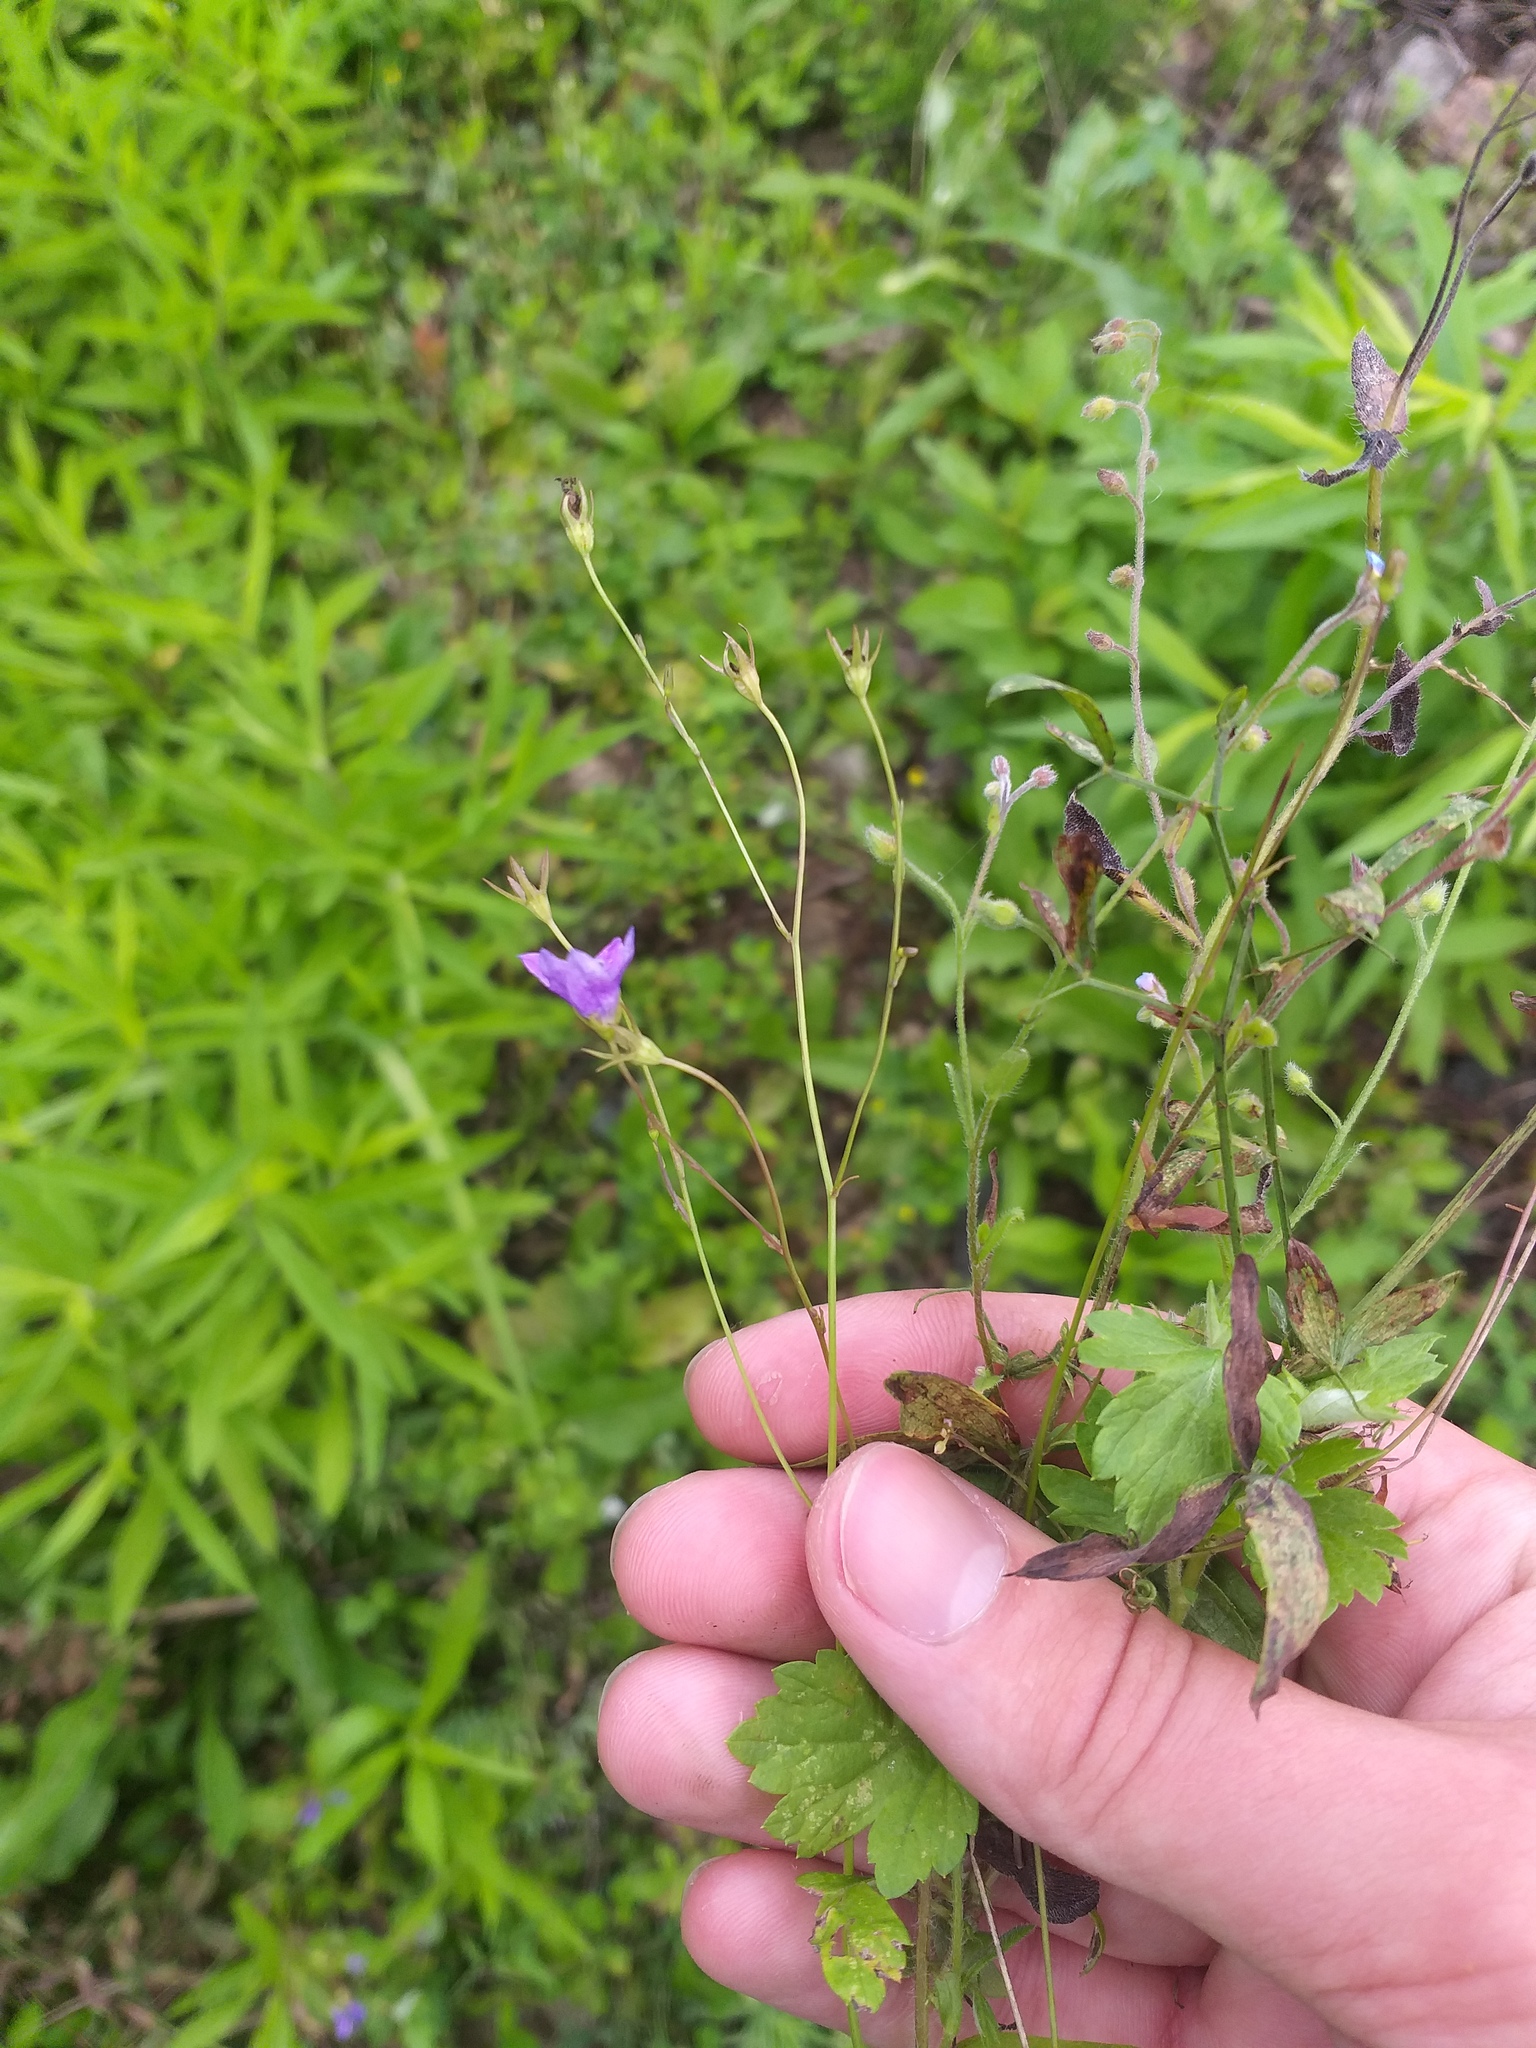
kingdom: Plantae
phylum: Tracheophyta
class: Magnoliopsida
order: Asterales
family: Campanulaceae
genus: Campanula
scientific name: Campanula patula
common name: Spreading bellflower
